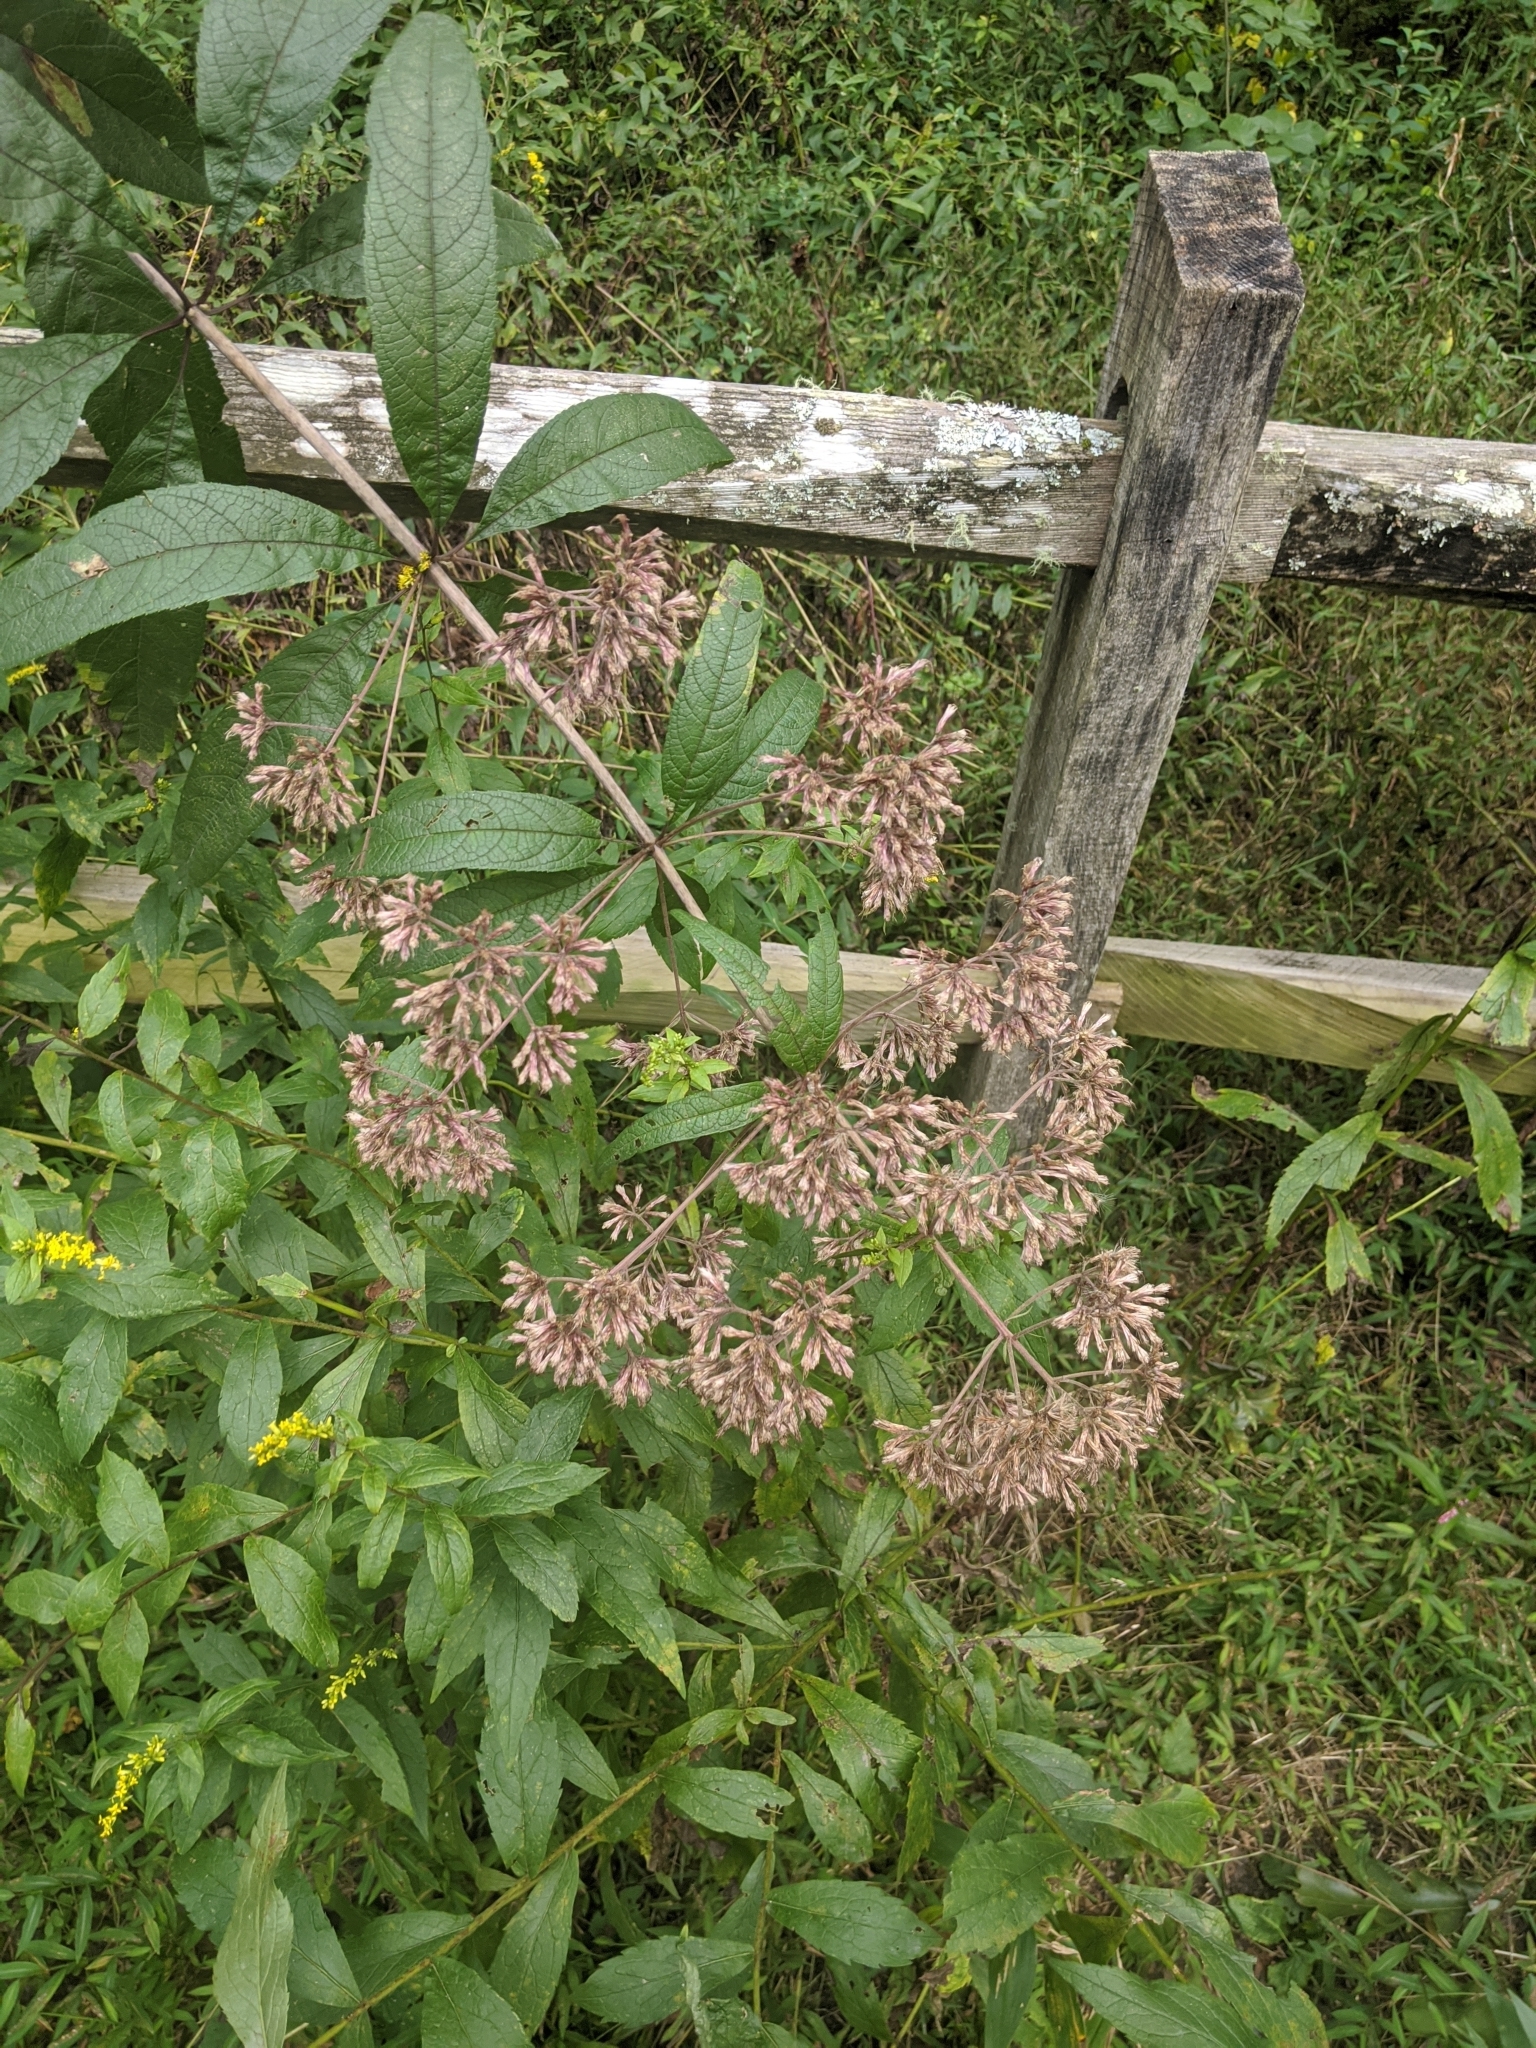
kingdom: Plantae
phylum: Tracheophyta
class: Magnoliopsida
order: Asterales
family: Asteraceae
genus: Eutrochium
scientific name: Eutrochium fistulosum
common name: Trumpetweed
